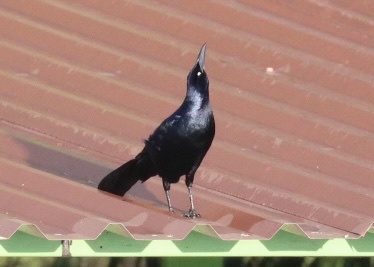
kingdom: Animalia
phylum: Chordata
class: Aves
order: Passeriformes
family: Icteridae
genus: Quiscalus
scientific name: Quiscalus mexicanus
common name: Great-tailed grackle
